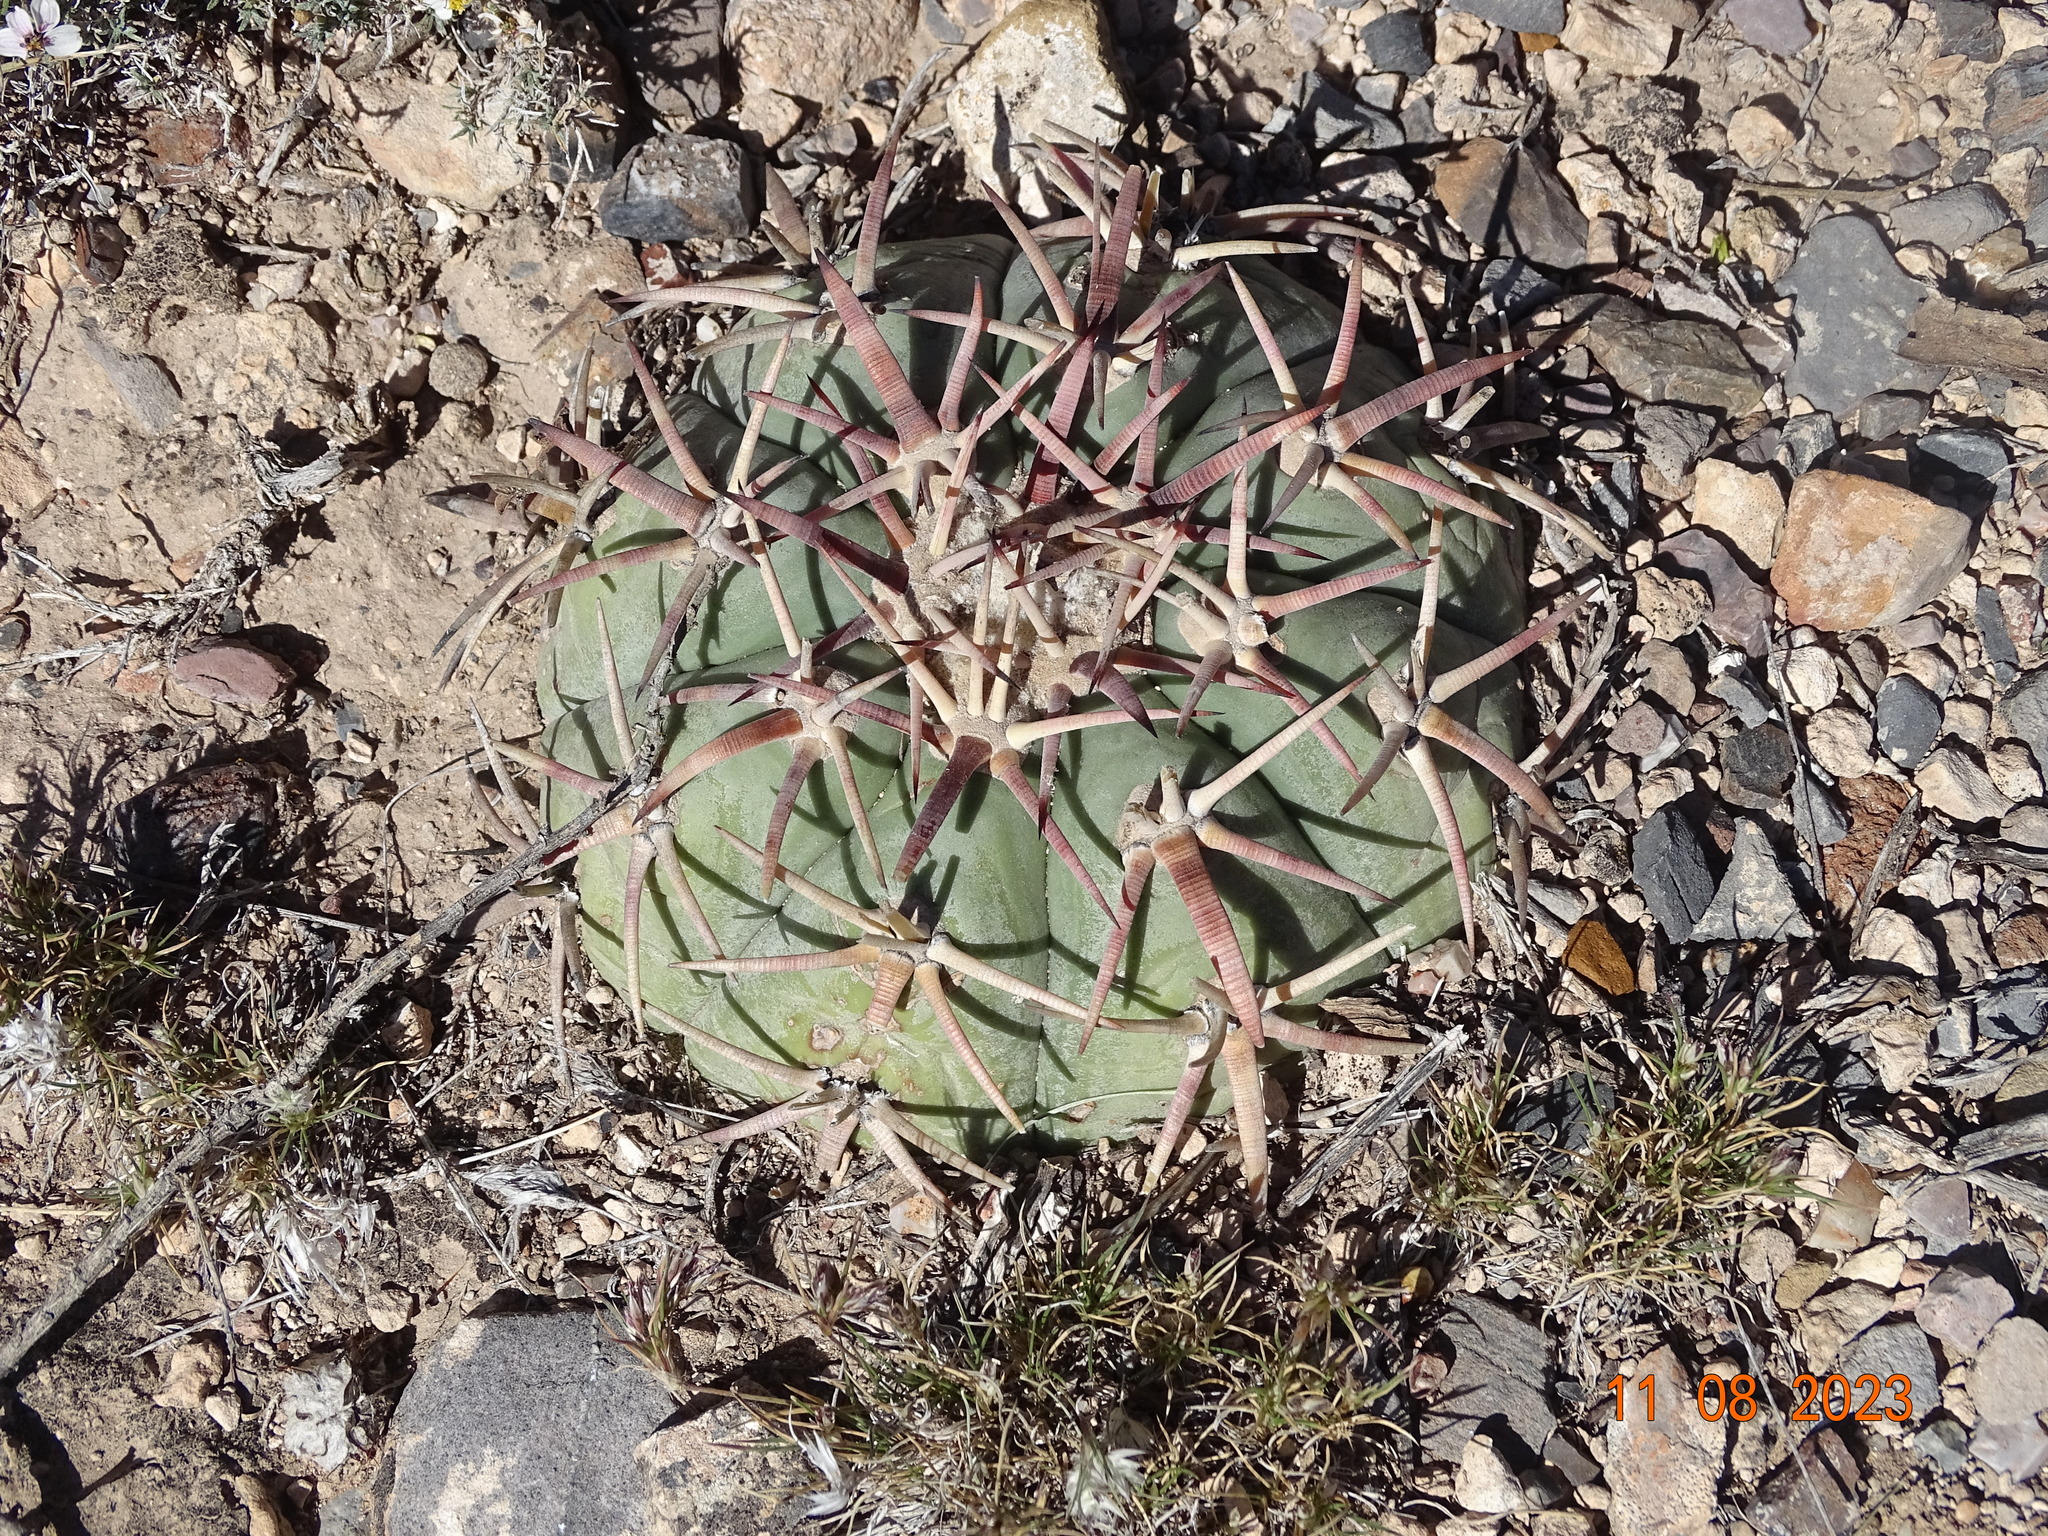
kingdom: Plantae
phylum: Tracheophyta
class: Magnoliopsida
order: Caryophyllales
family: Cactaceae
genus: Echinocactus
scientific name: Echinocactus horizonthalonius
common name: Devilshead
